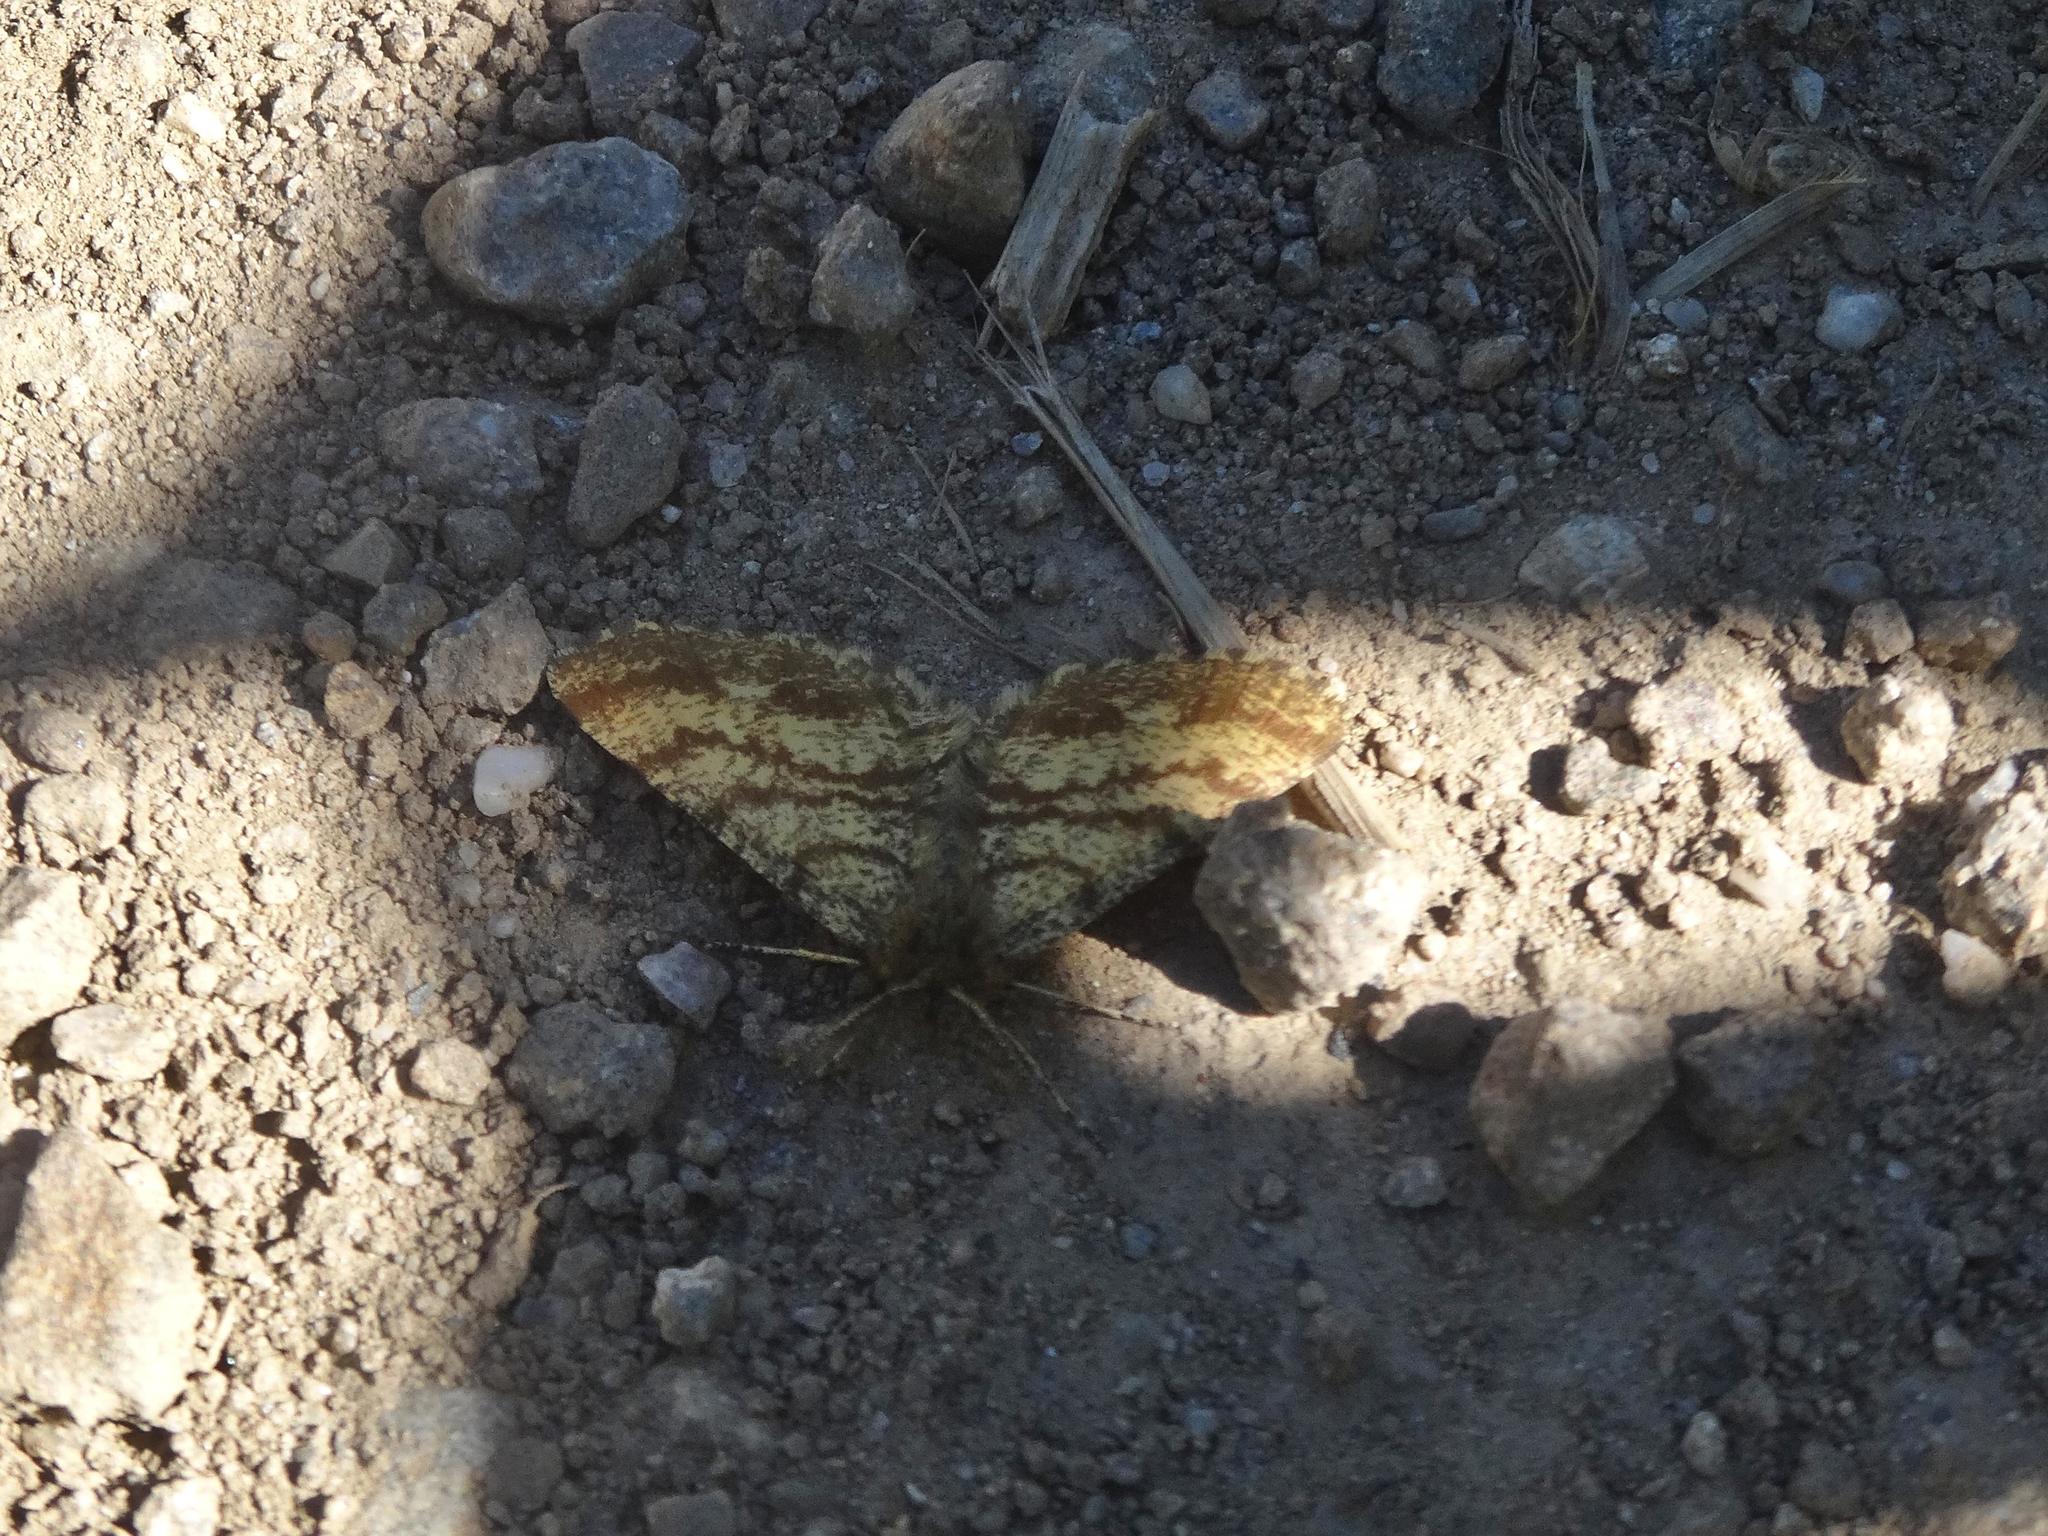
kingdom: Animalia
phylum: Arthropoda
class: Insecta
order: Lepidoptera
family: Geometridae
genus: Ematurga
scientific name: Ematurga atomaria
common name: Common heath
